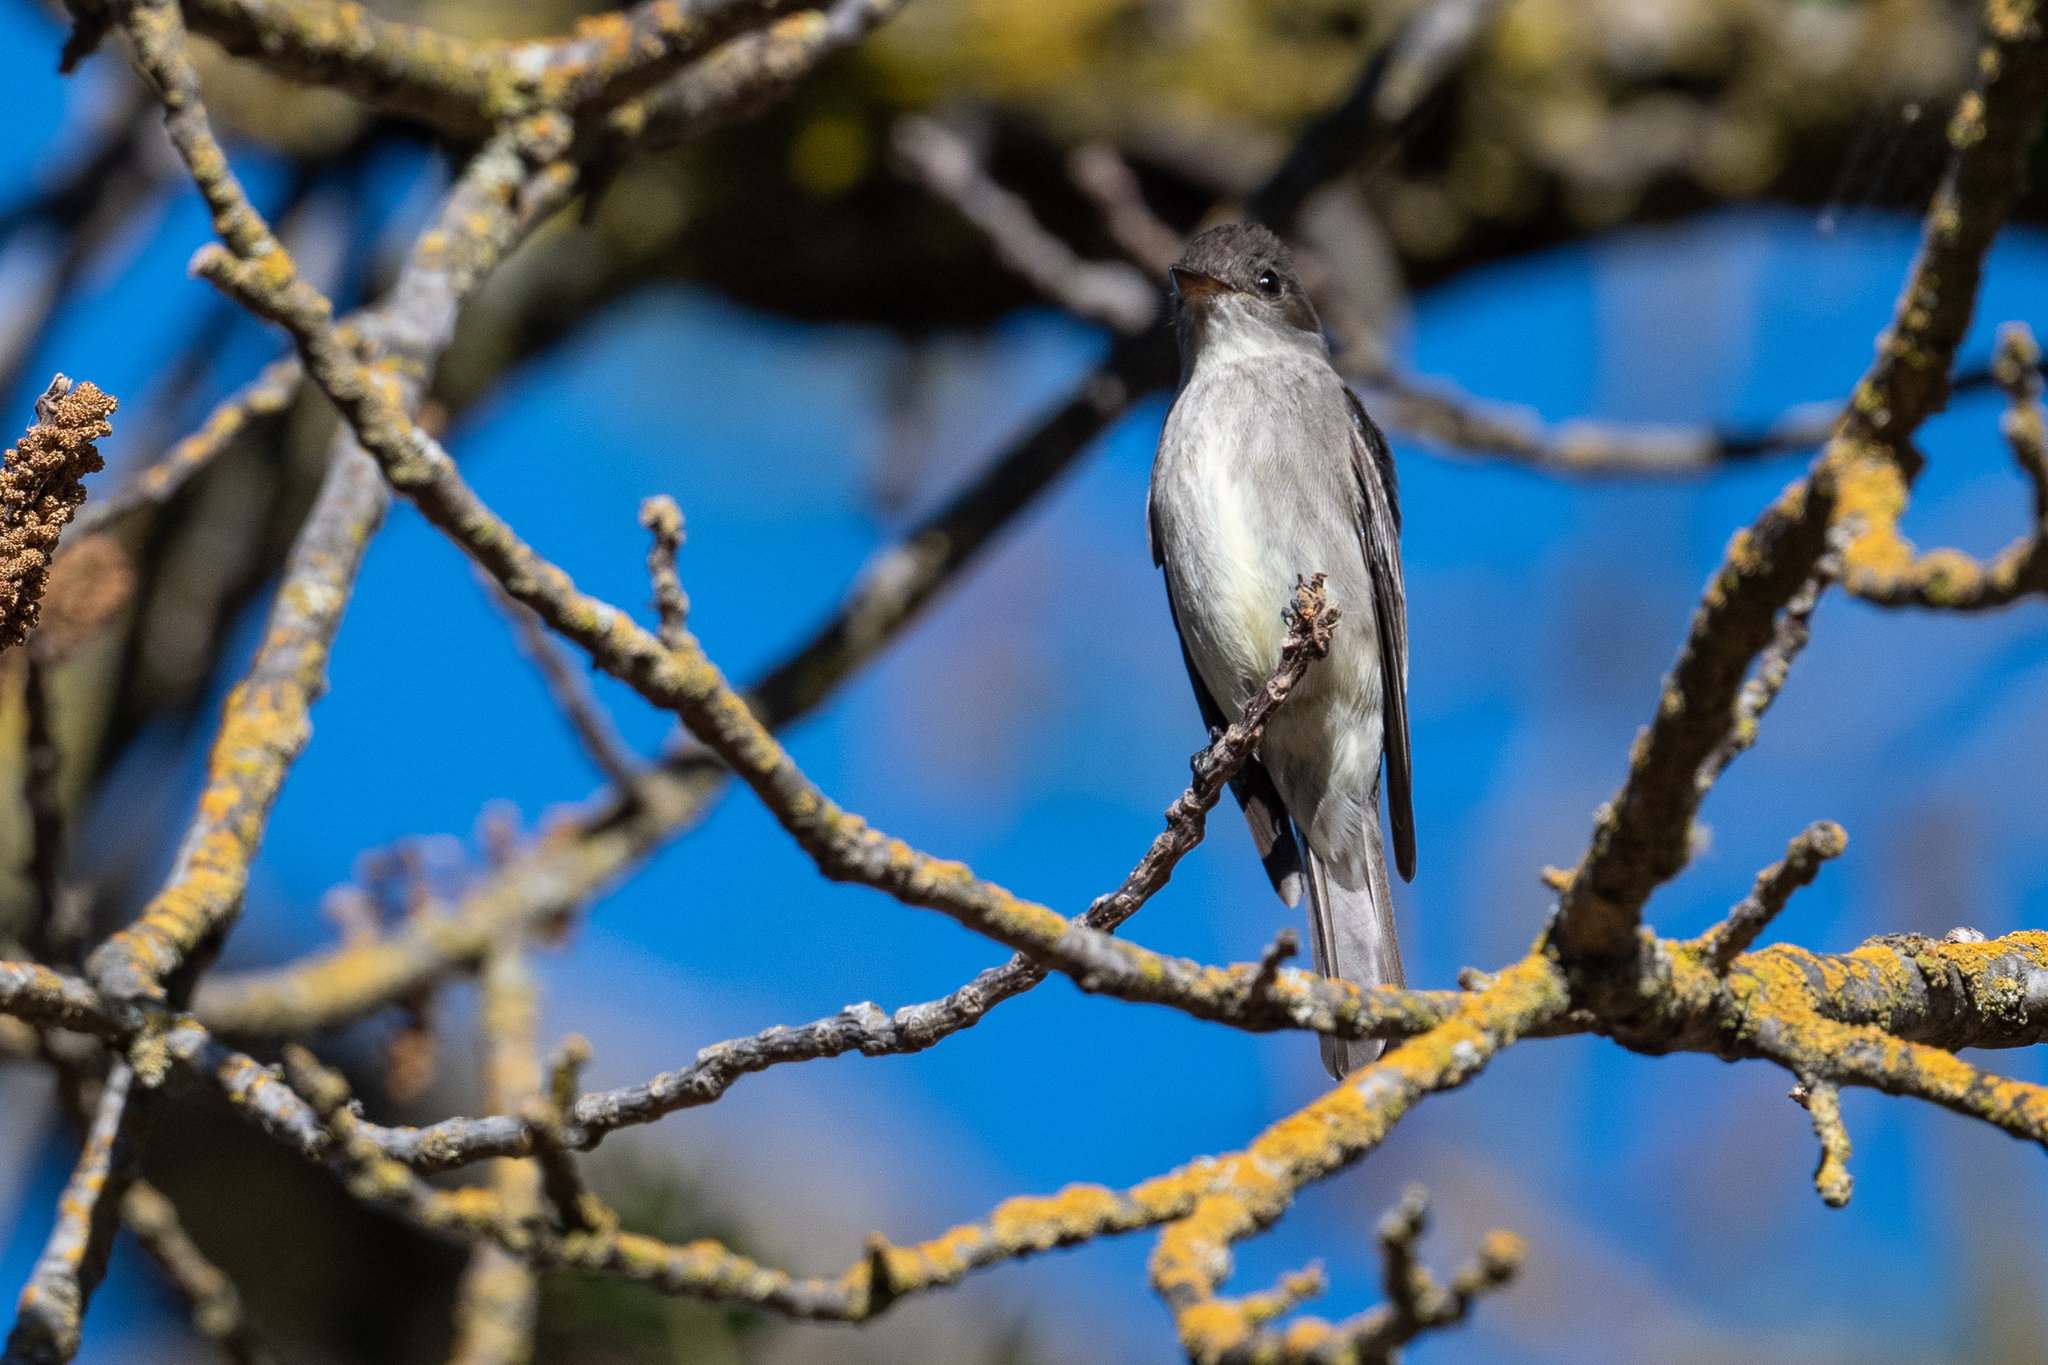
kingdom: Animalia
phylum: Chordata
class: Aves
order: Passeriformes
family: Tyrannidae
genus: Contopus
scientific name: Contopus cooperi
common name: Olive-sided flycatcher
